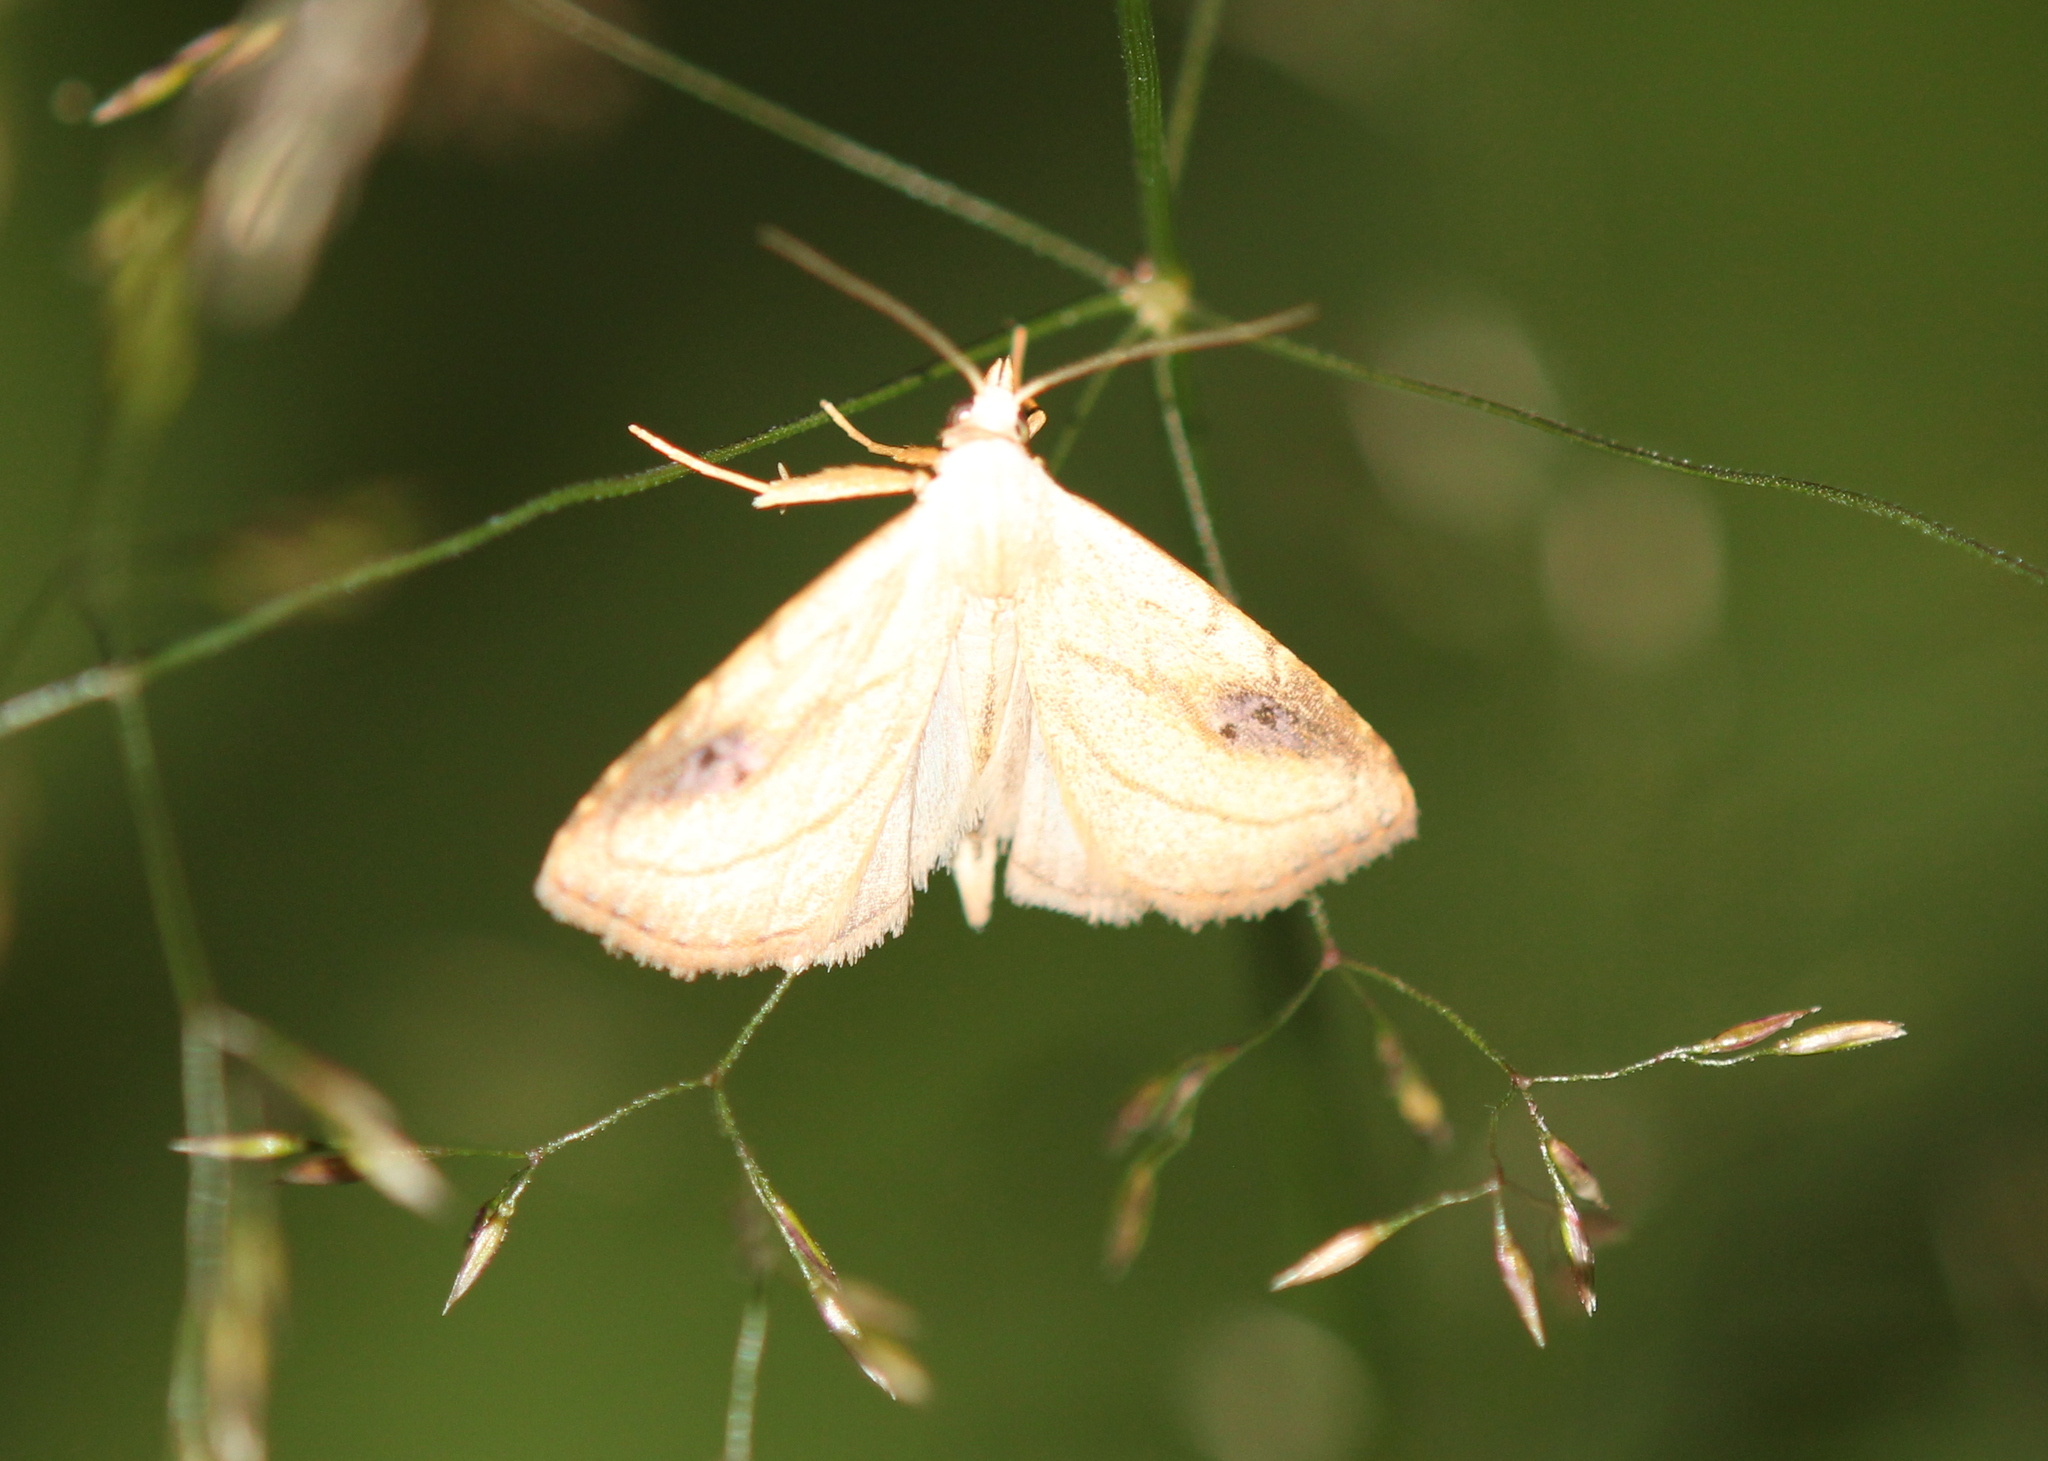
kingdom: Animalia
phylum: Arthropoda
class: Insecta
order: Lepidoptera
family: Erebidae
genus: Rivula
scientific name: Rivula propinqualis
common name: Spotted grass moth
